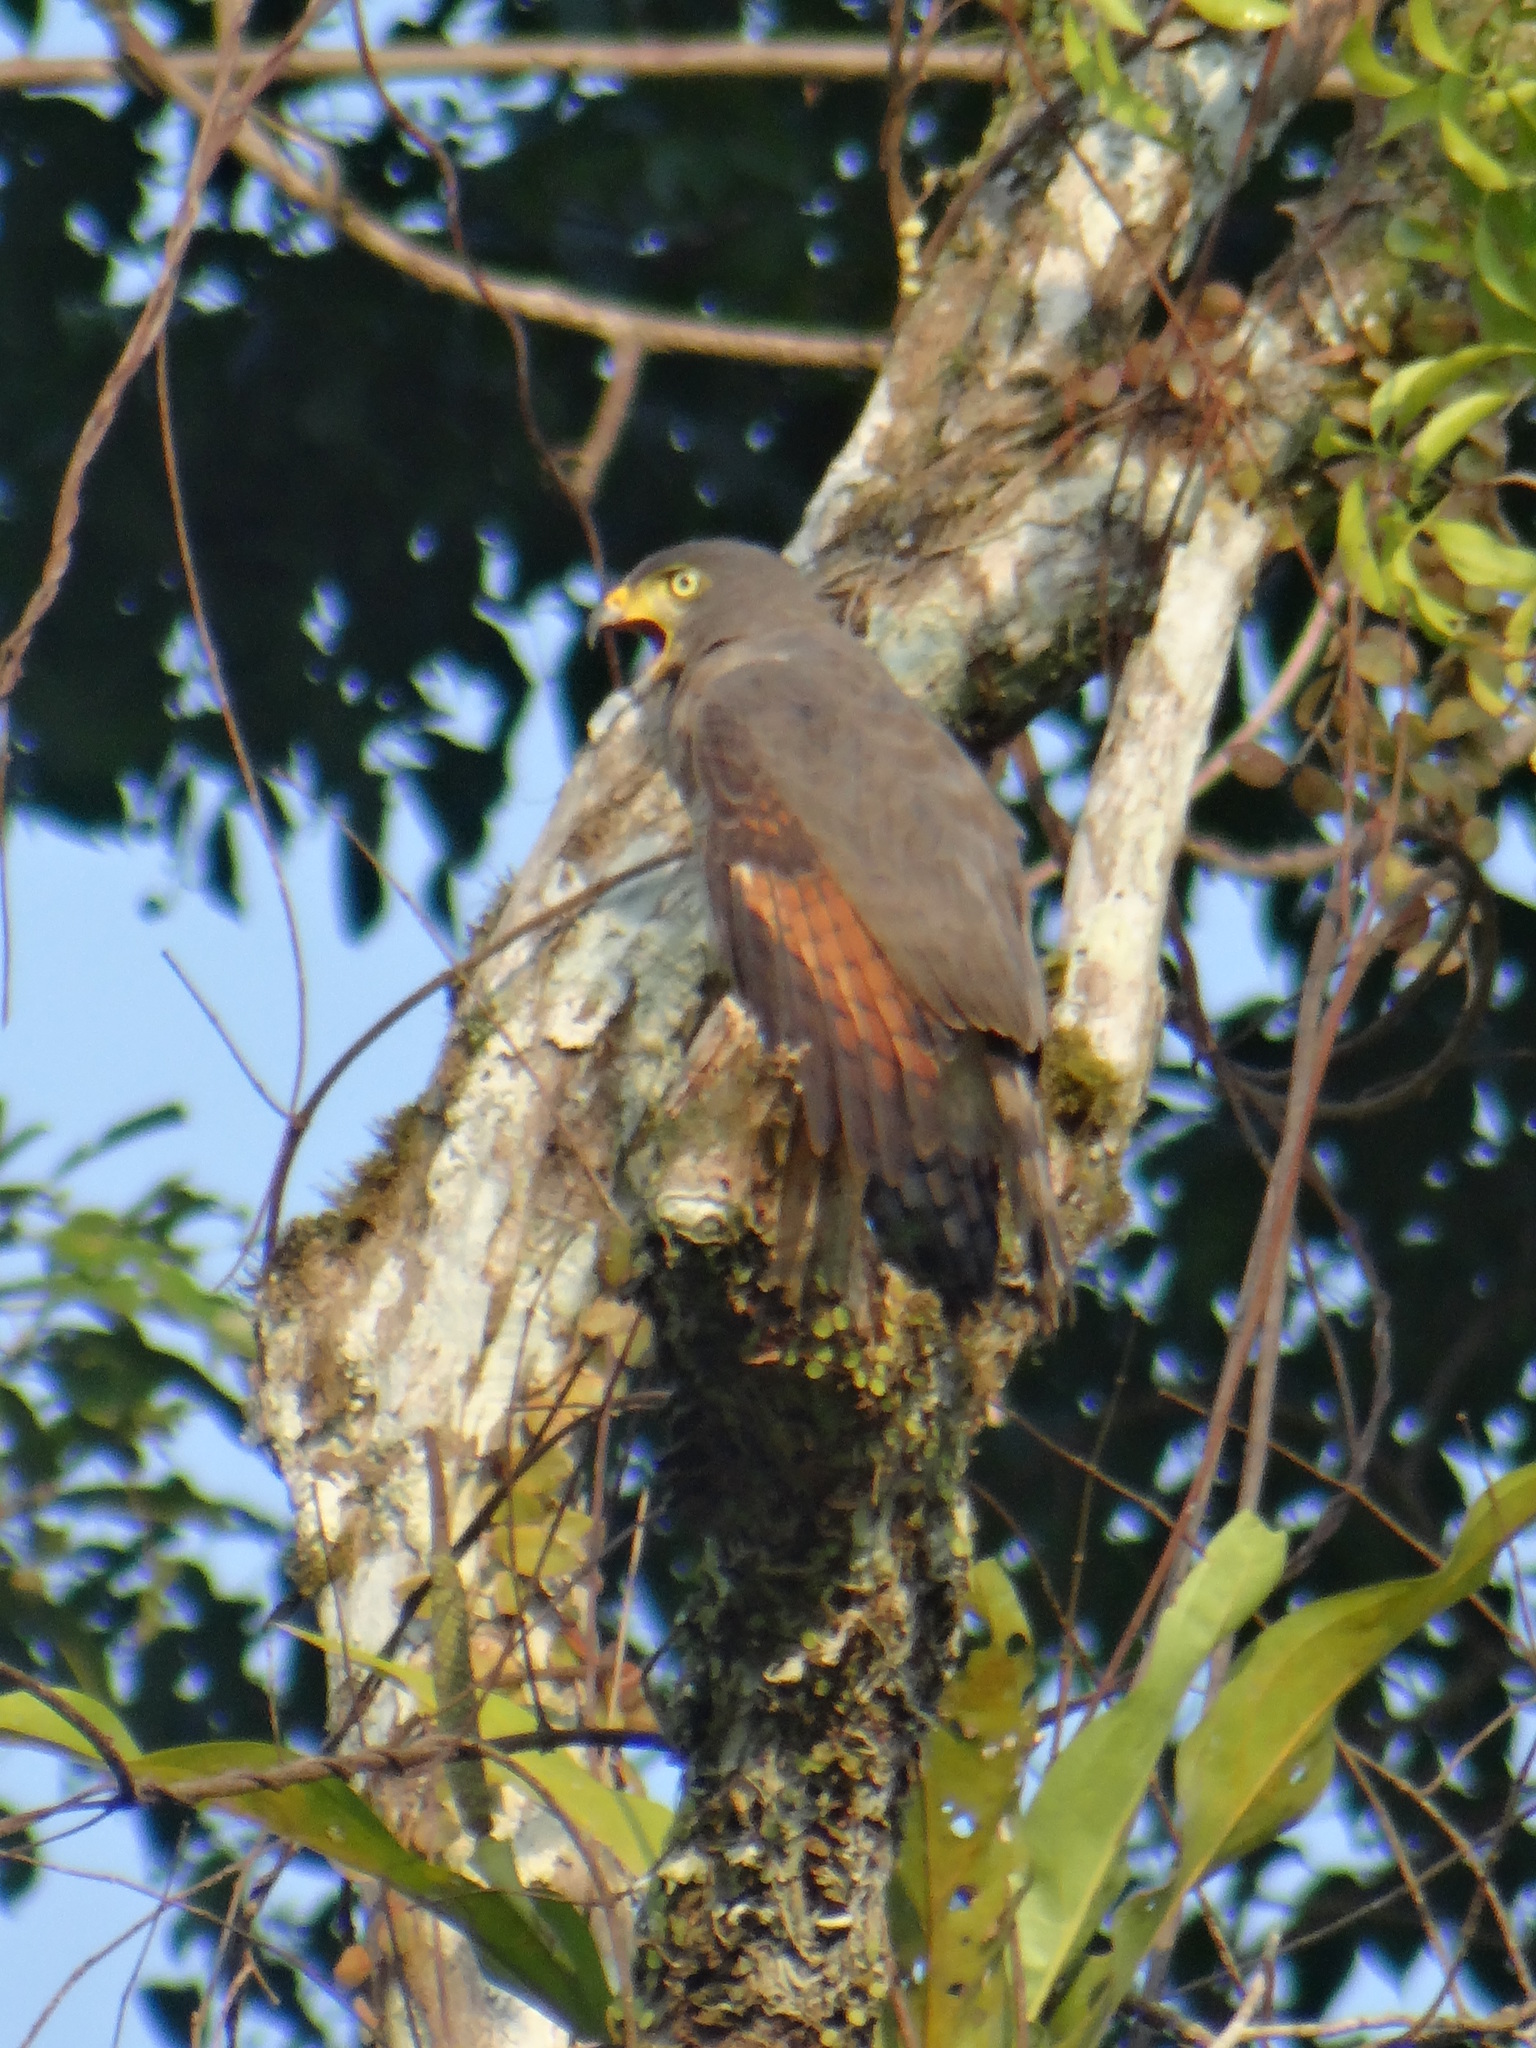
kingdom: Animalia
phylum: Chordata
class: Aves
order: Accipitriformes
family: Accipitridae
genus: Rupornis
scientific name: Rupornis magnirostris
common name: Roadside hawk
